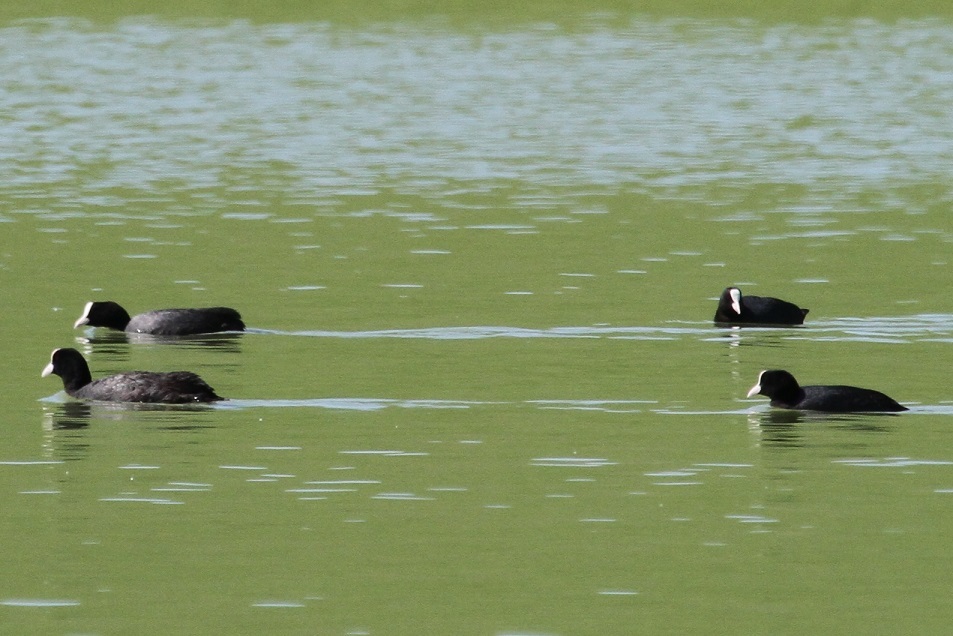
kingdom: Animalia
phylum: Chordata
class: Aves
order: Gruiformes
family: Rallidae
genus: Fulica
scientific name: Fulica atra
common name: Eurasian coot
